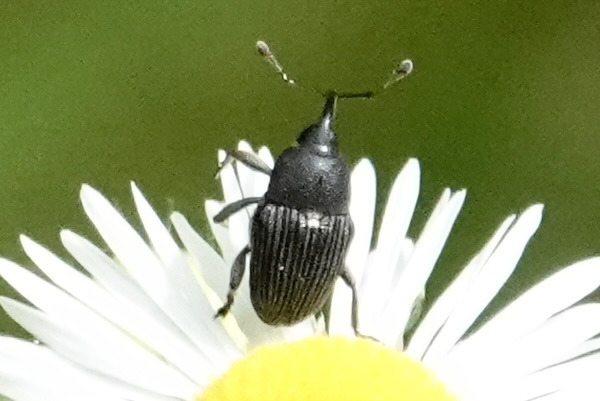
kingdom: Animalia
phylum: Arthropoda
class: Insecta
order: Coleoptera
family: Curculionidae
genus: Odontocorynus
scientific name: Odontocorynus umbellae
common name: Daisy flower weevil
